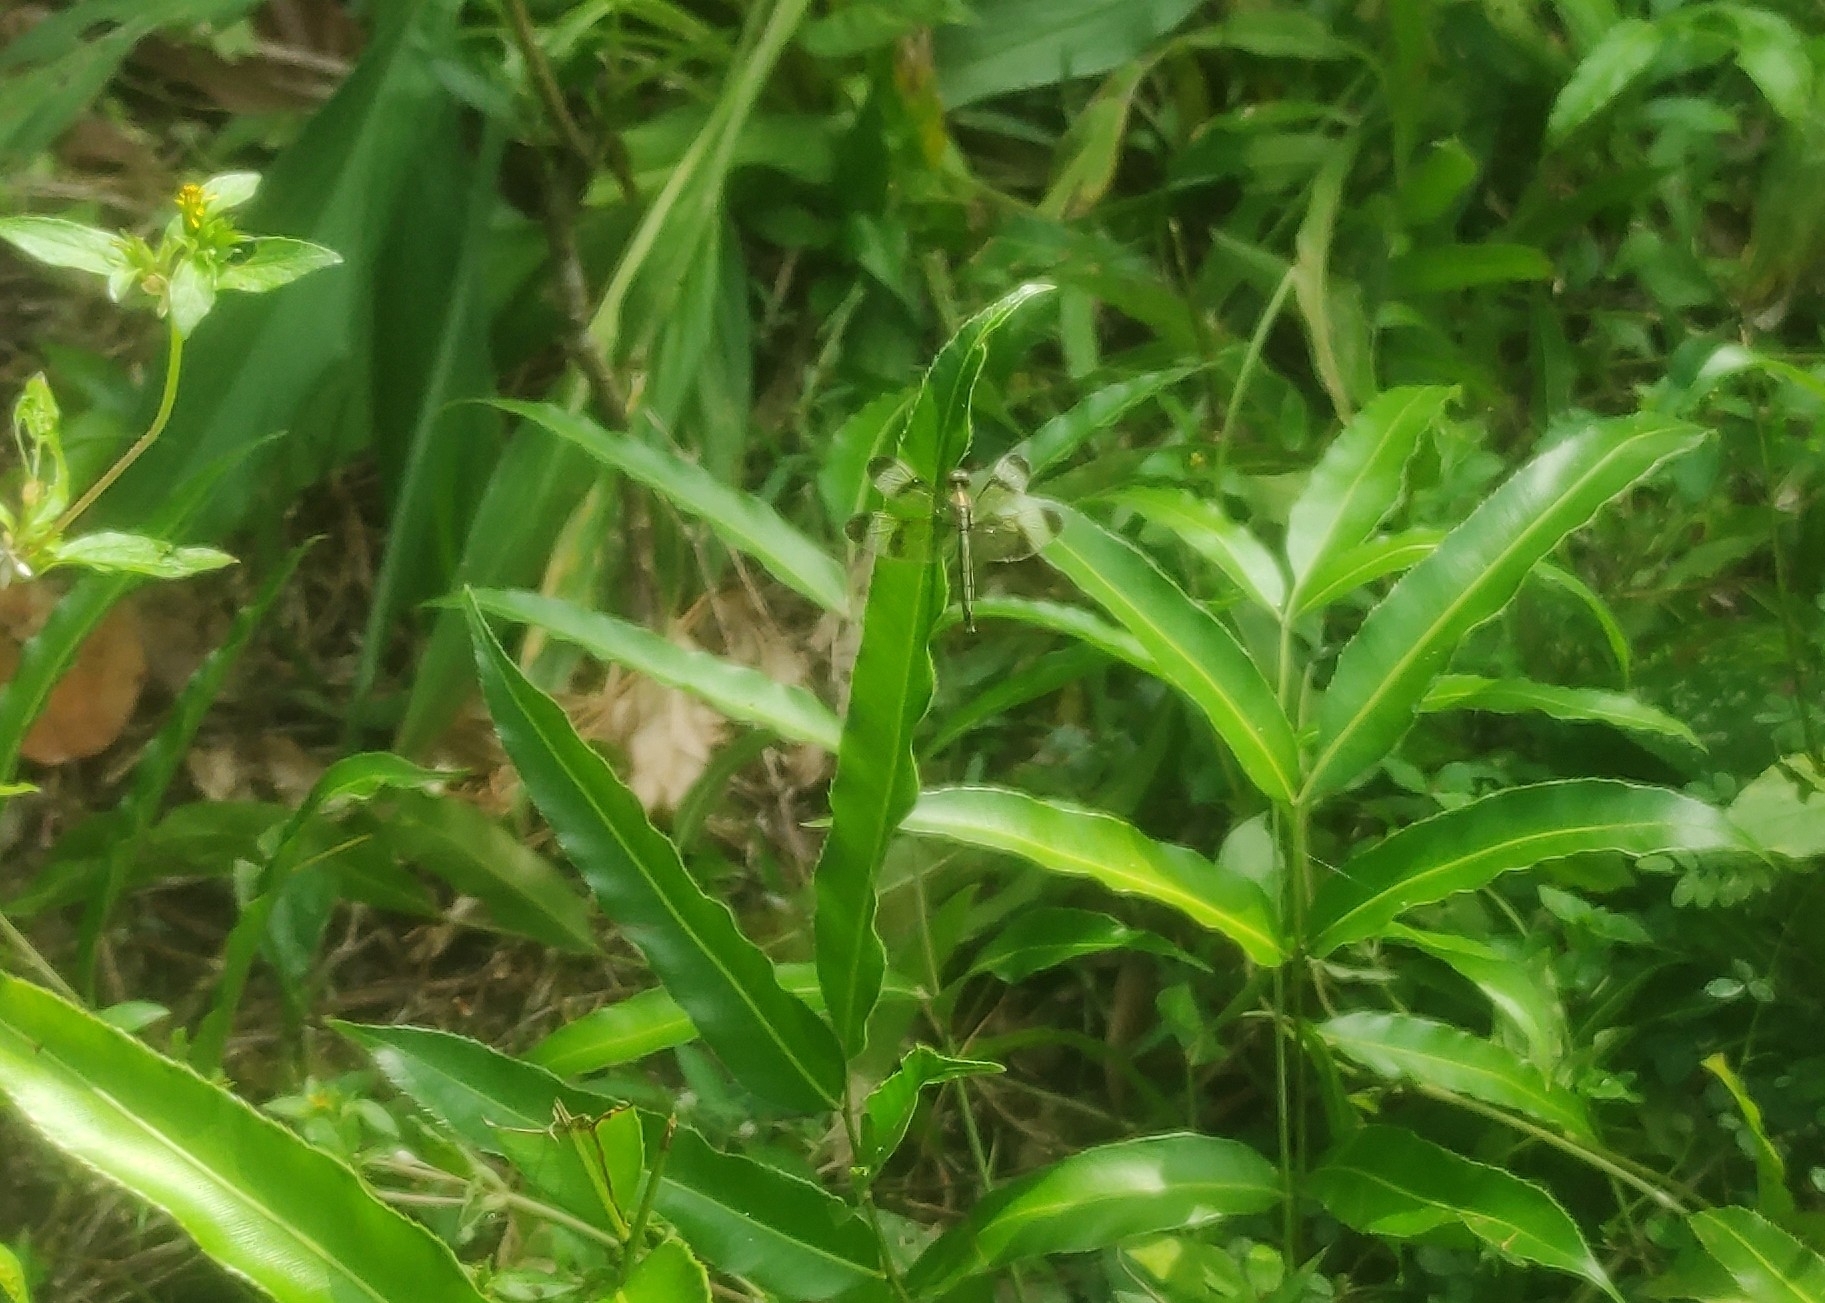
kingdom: Animalia
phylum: Arthropoda
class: Insecta
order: Odonata
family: Libellulidae
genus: Neurothemis
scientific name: Neurothemis tullia
